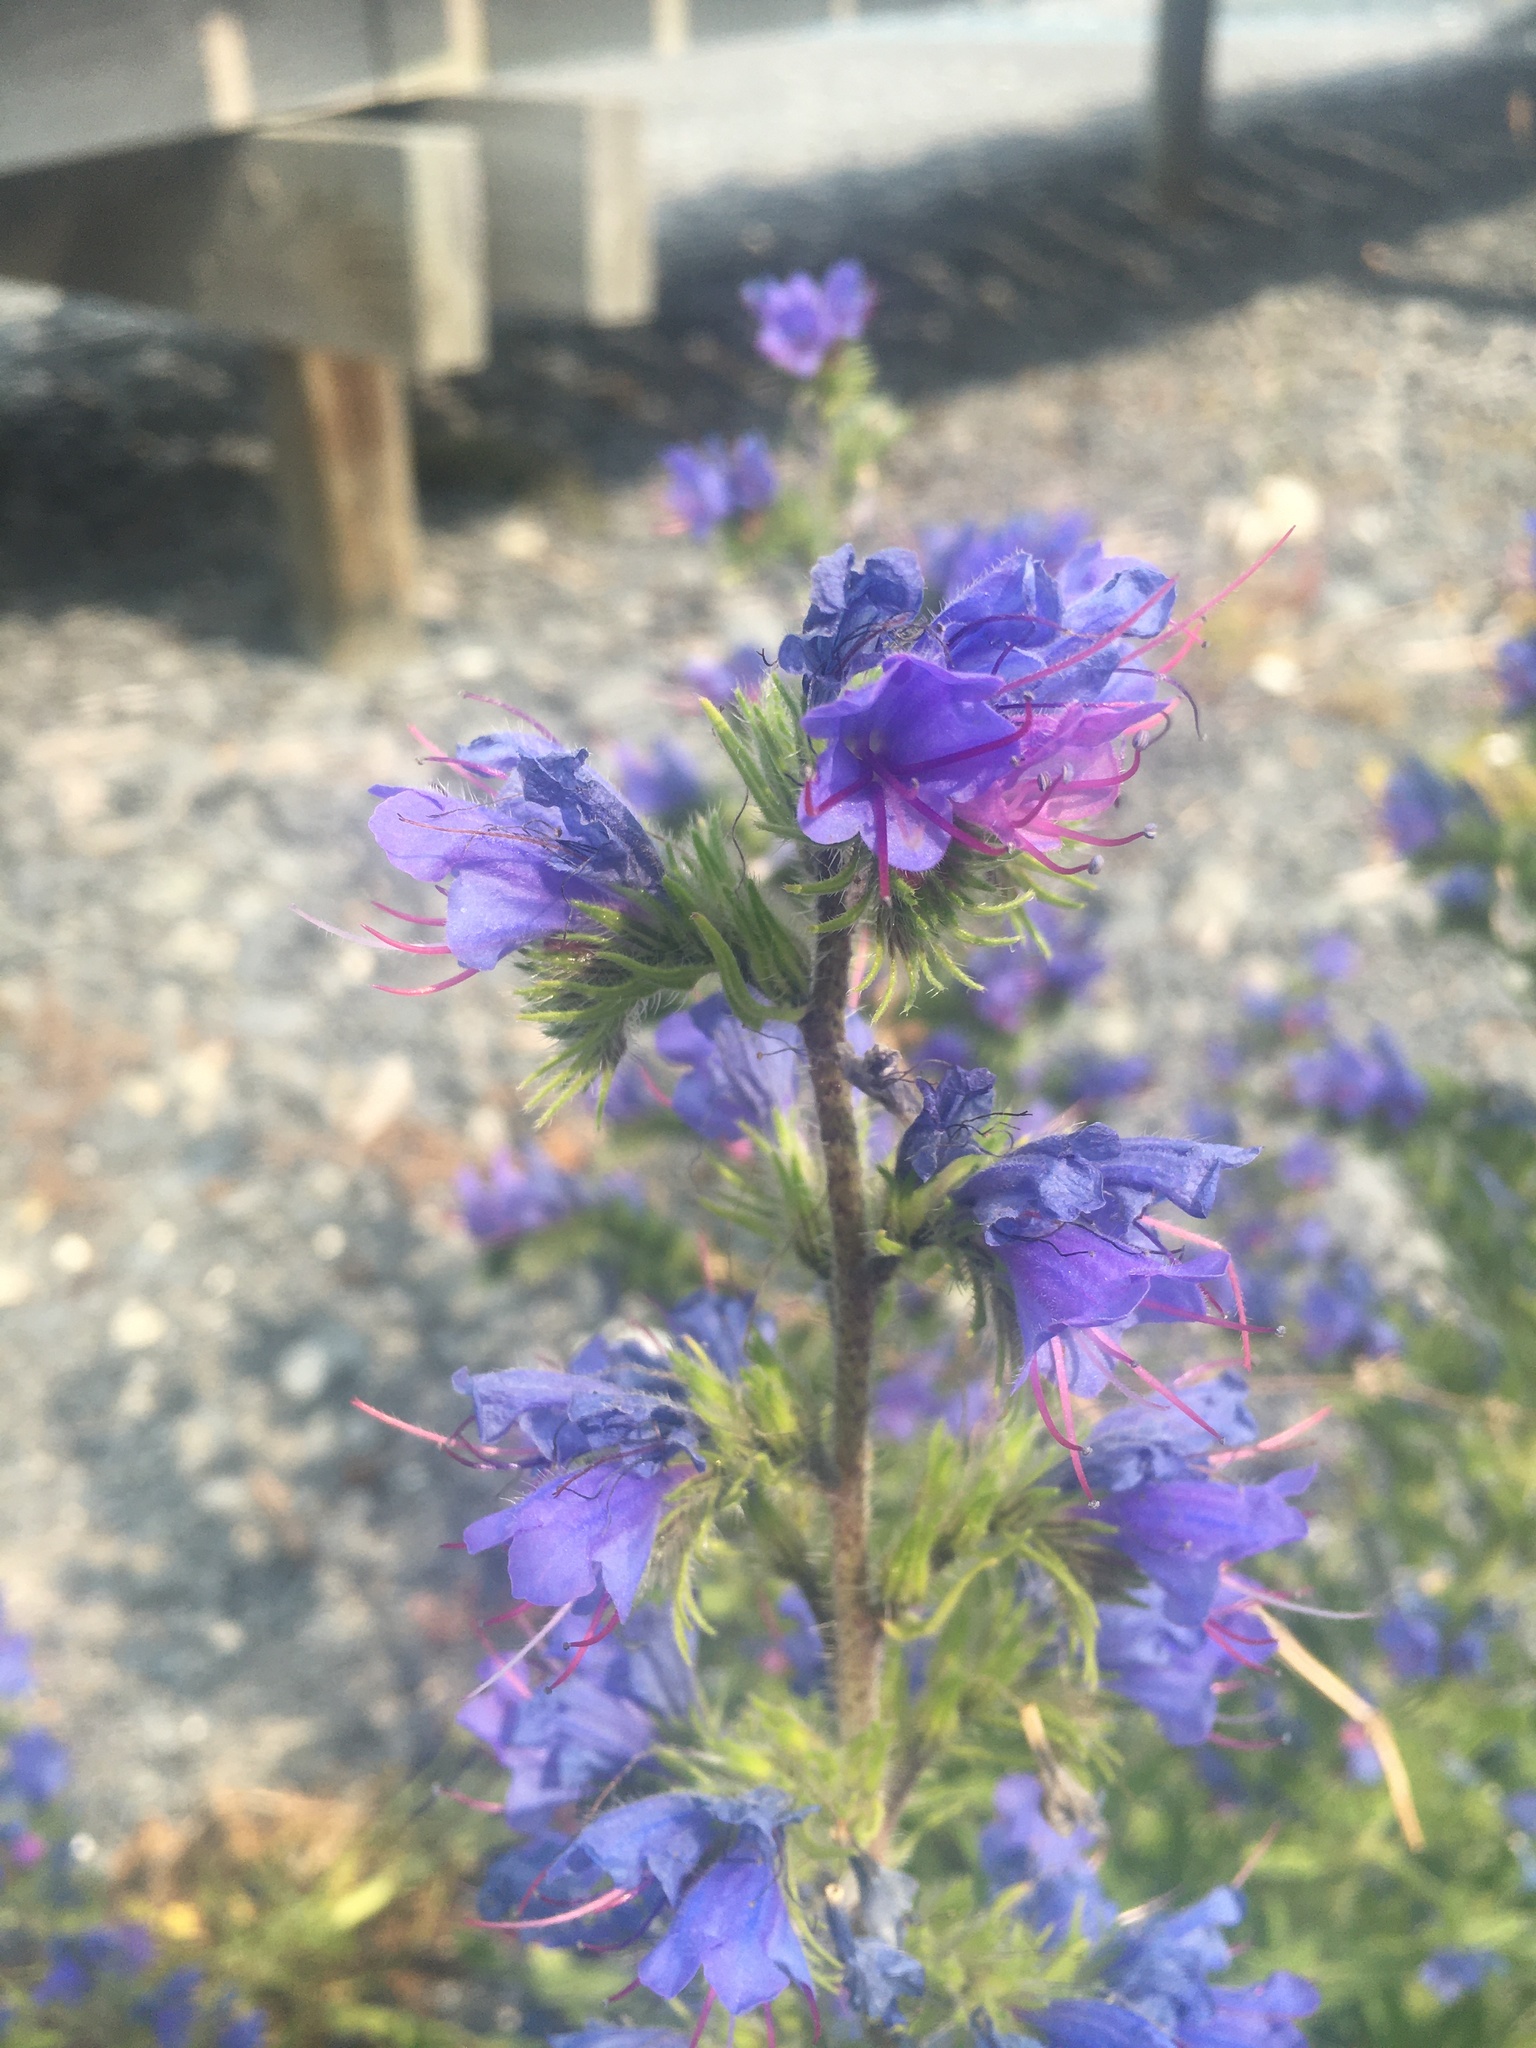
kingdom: Plantae
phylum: Tracheophyta
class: Magnoliopsida
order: Boraginales
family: Boraginaceae
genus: Echium
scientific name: Echium vulgare
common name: Common viper's bugloss
